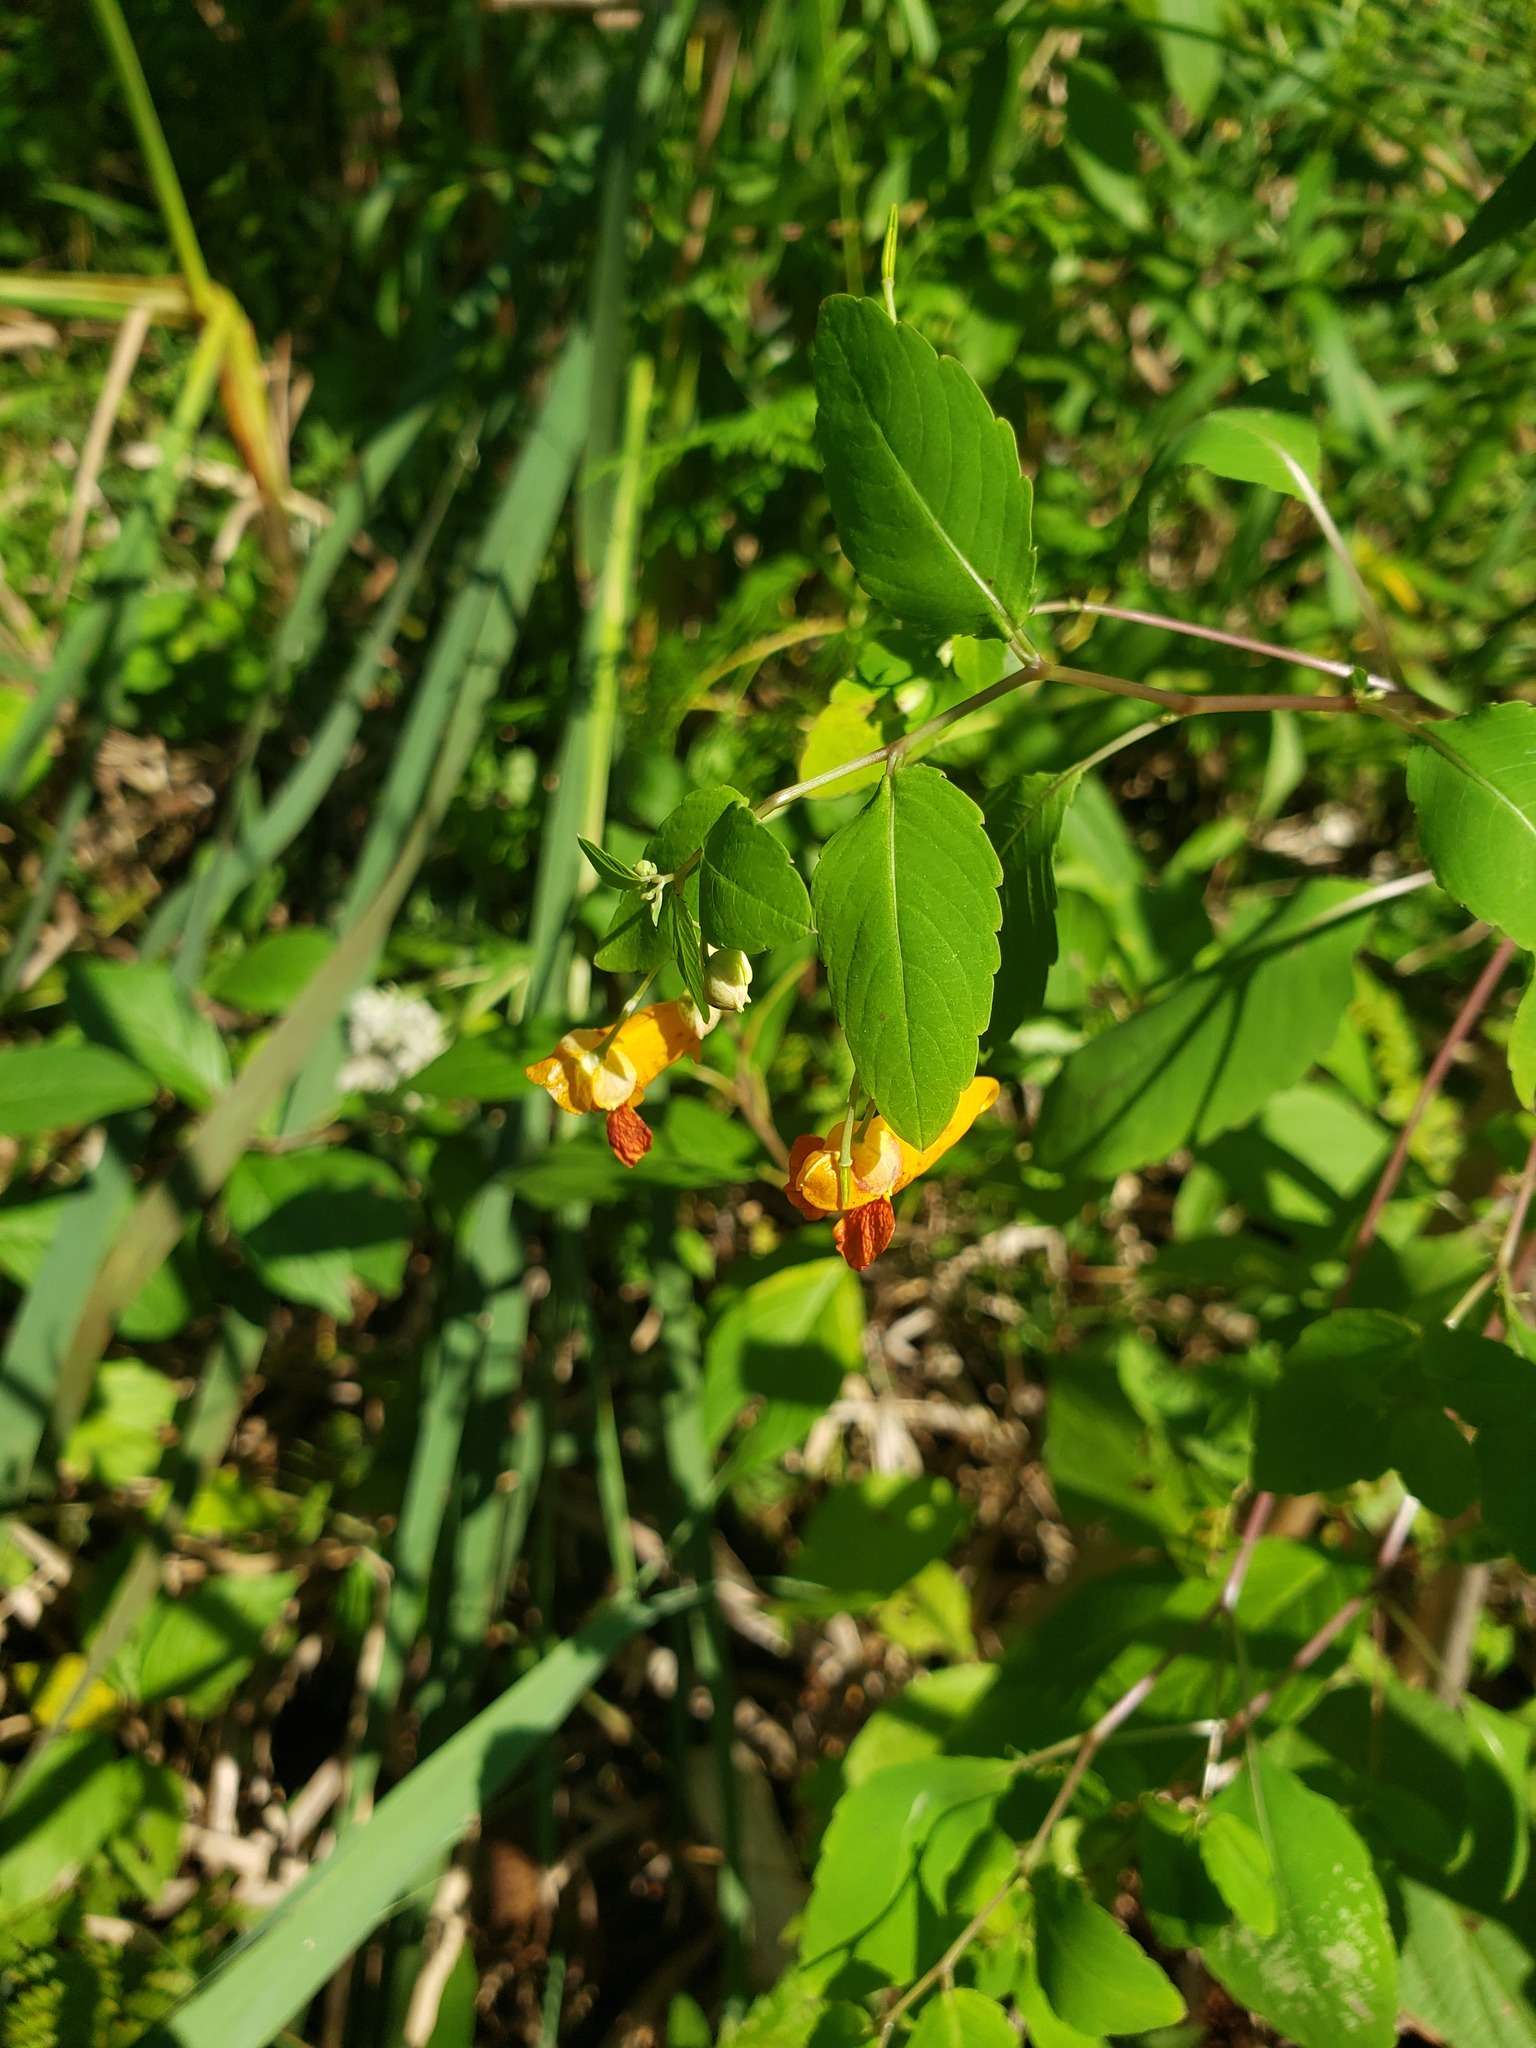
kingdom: Plantae
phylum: Tracheophyta
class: Magnoliopsida
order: Ericales
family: Balsaminaceae
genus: Impatiens
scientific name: Impatiens capensis
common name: Orange balsam
